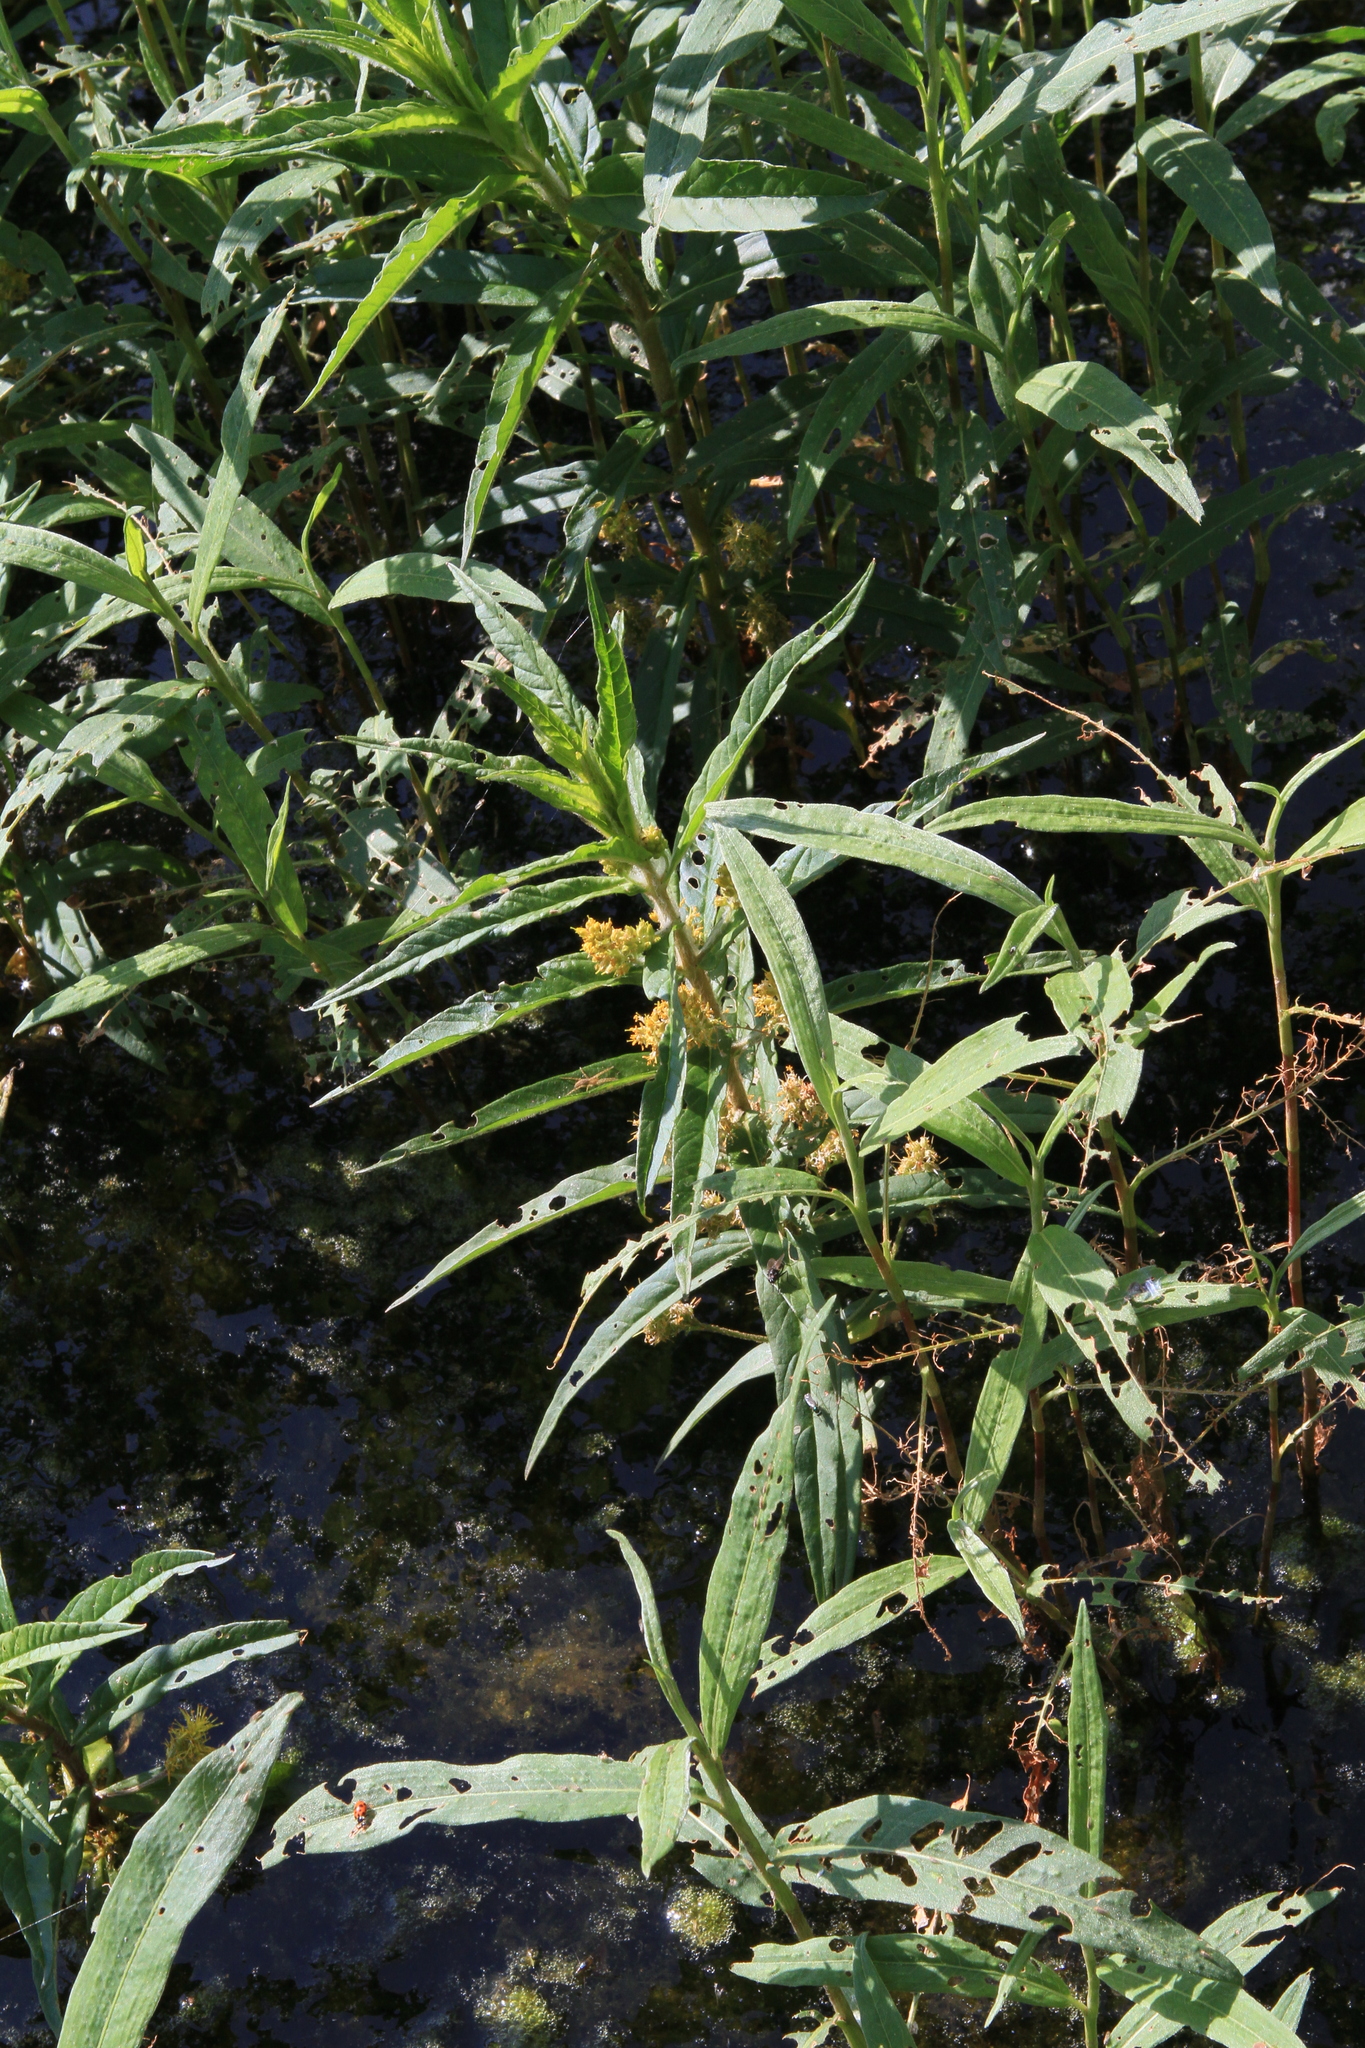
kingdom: Plantae
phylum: Tracheophyta
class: Magnoliopsida
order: Ericales
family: Primulaceae
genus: Lysimachia
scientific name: Lysimachia thyrsiflora
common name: Tufted loosestrife
